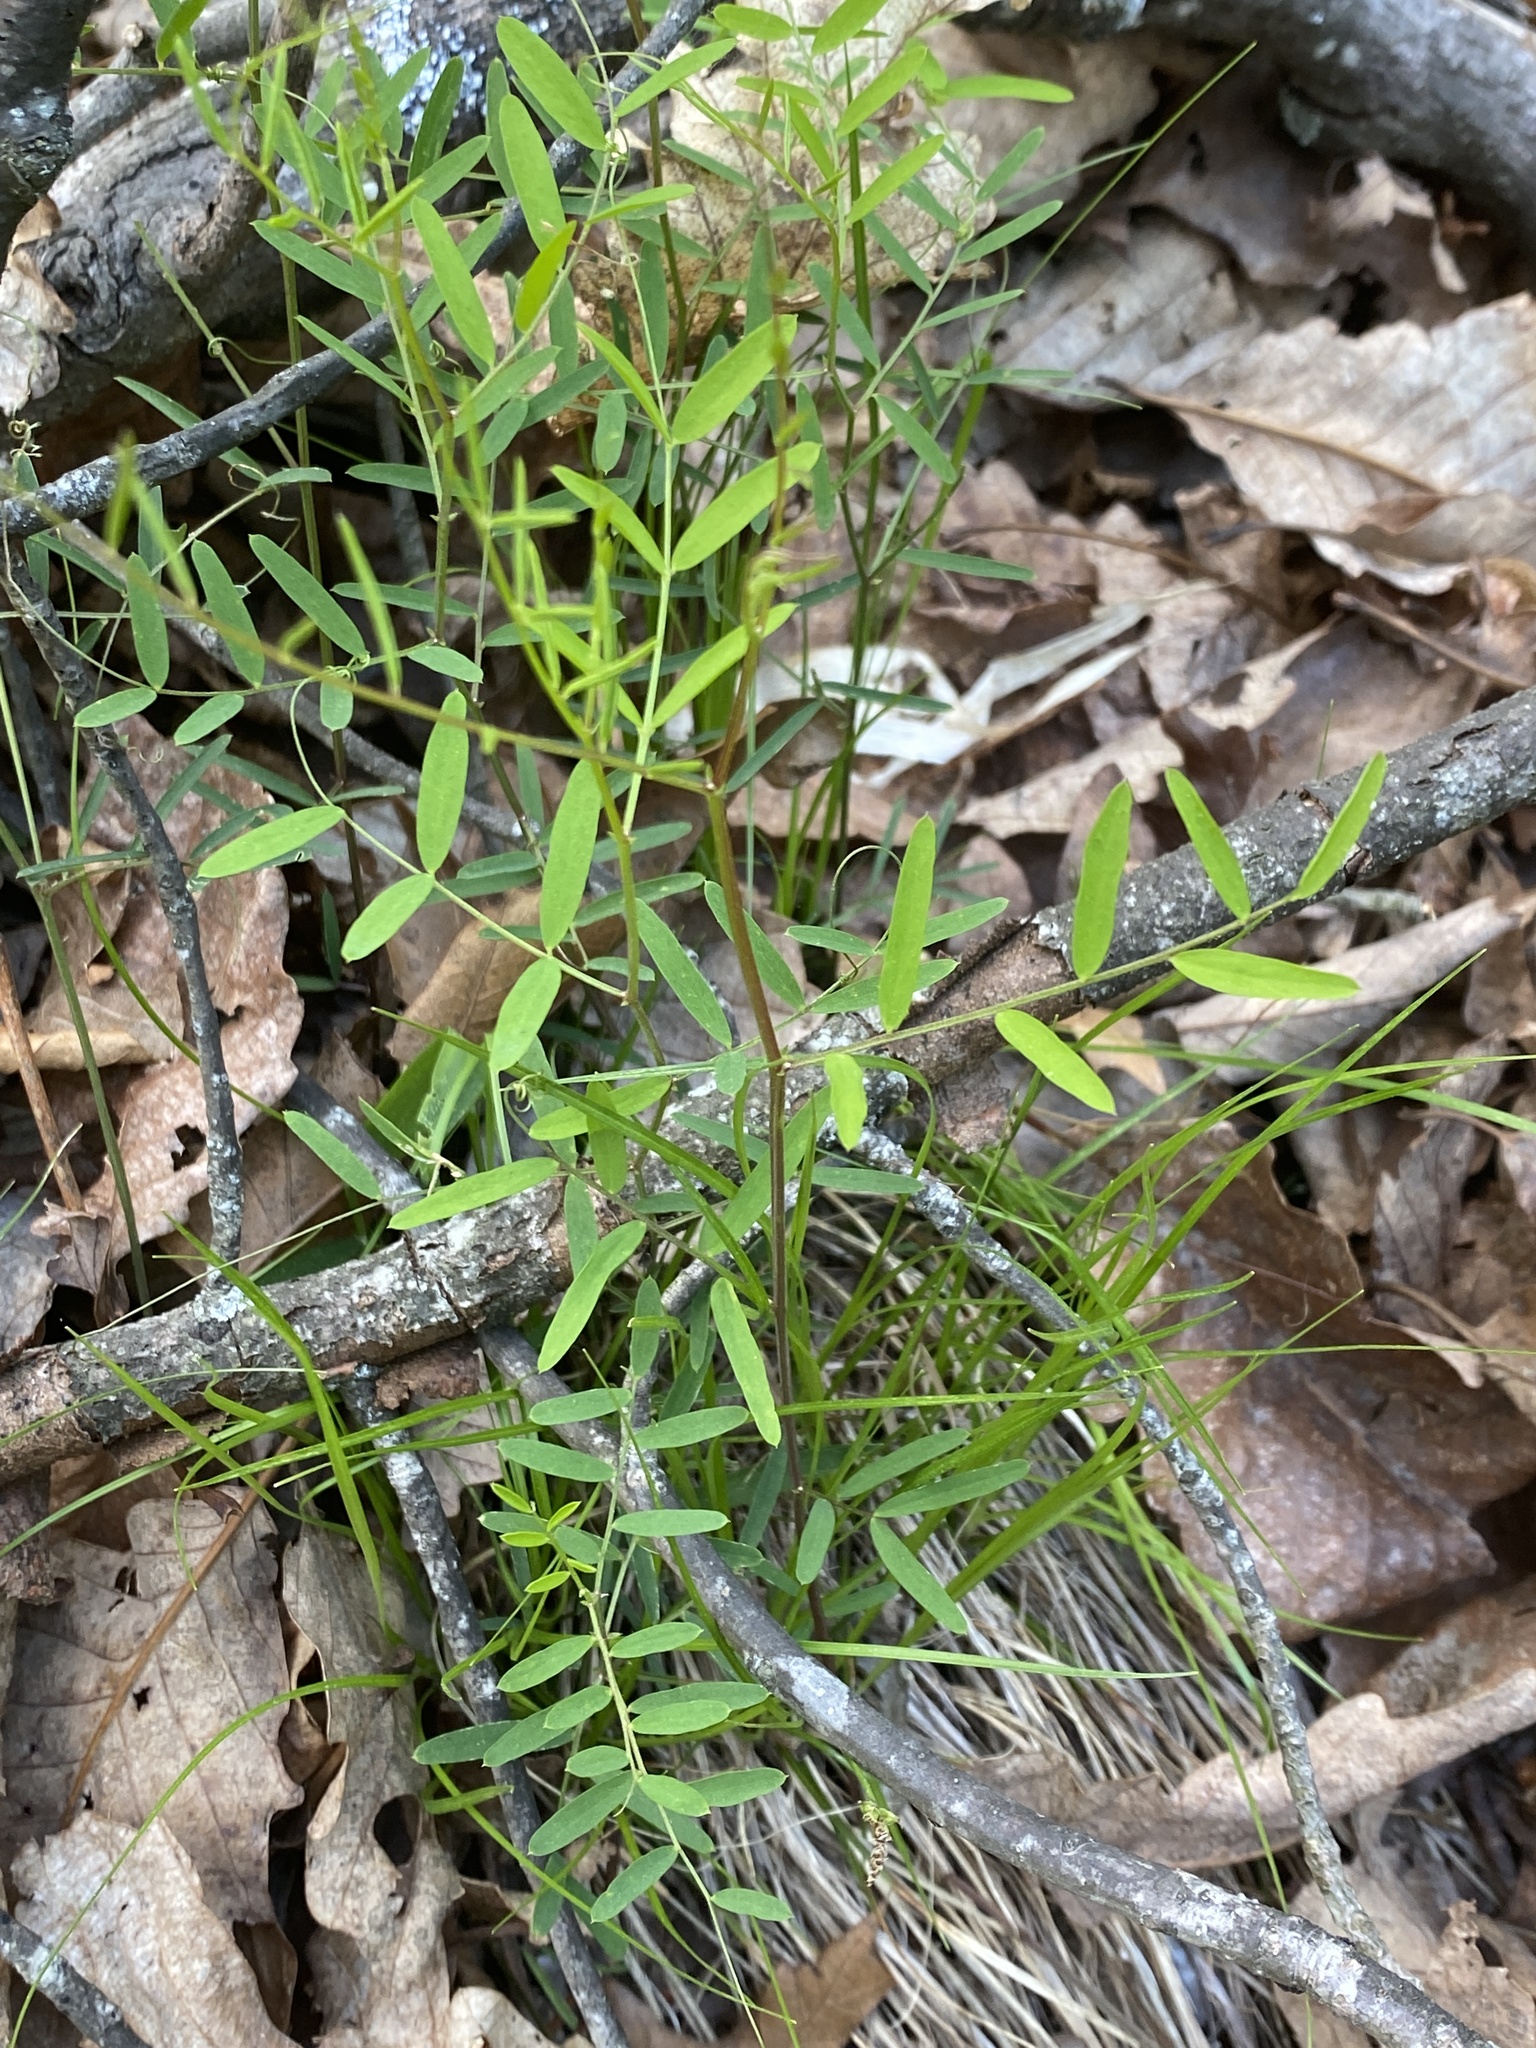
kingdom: Plantae
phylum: Tracheophyta
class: Magnoliopsida
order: Fabales
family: Fabaceae
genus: Vicia
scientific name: Vicia caroliniana
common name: Carolina vetch
